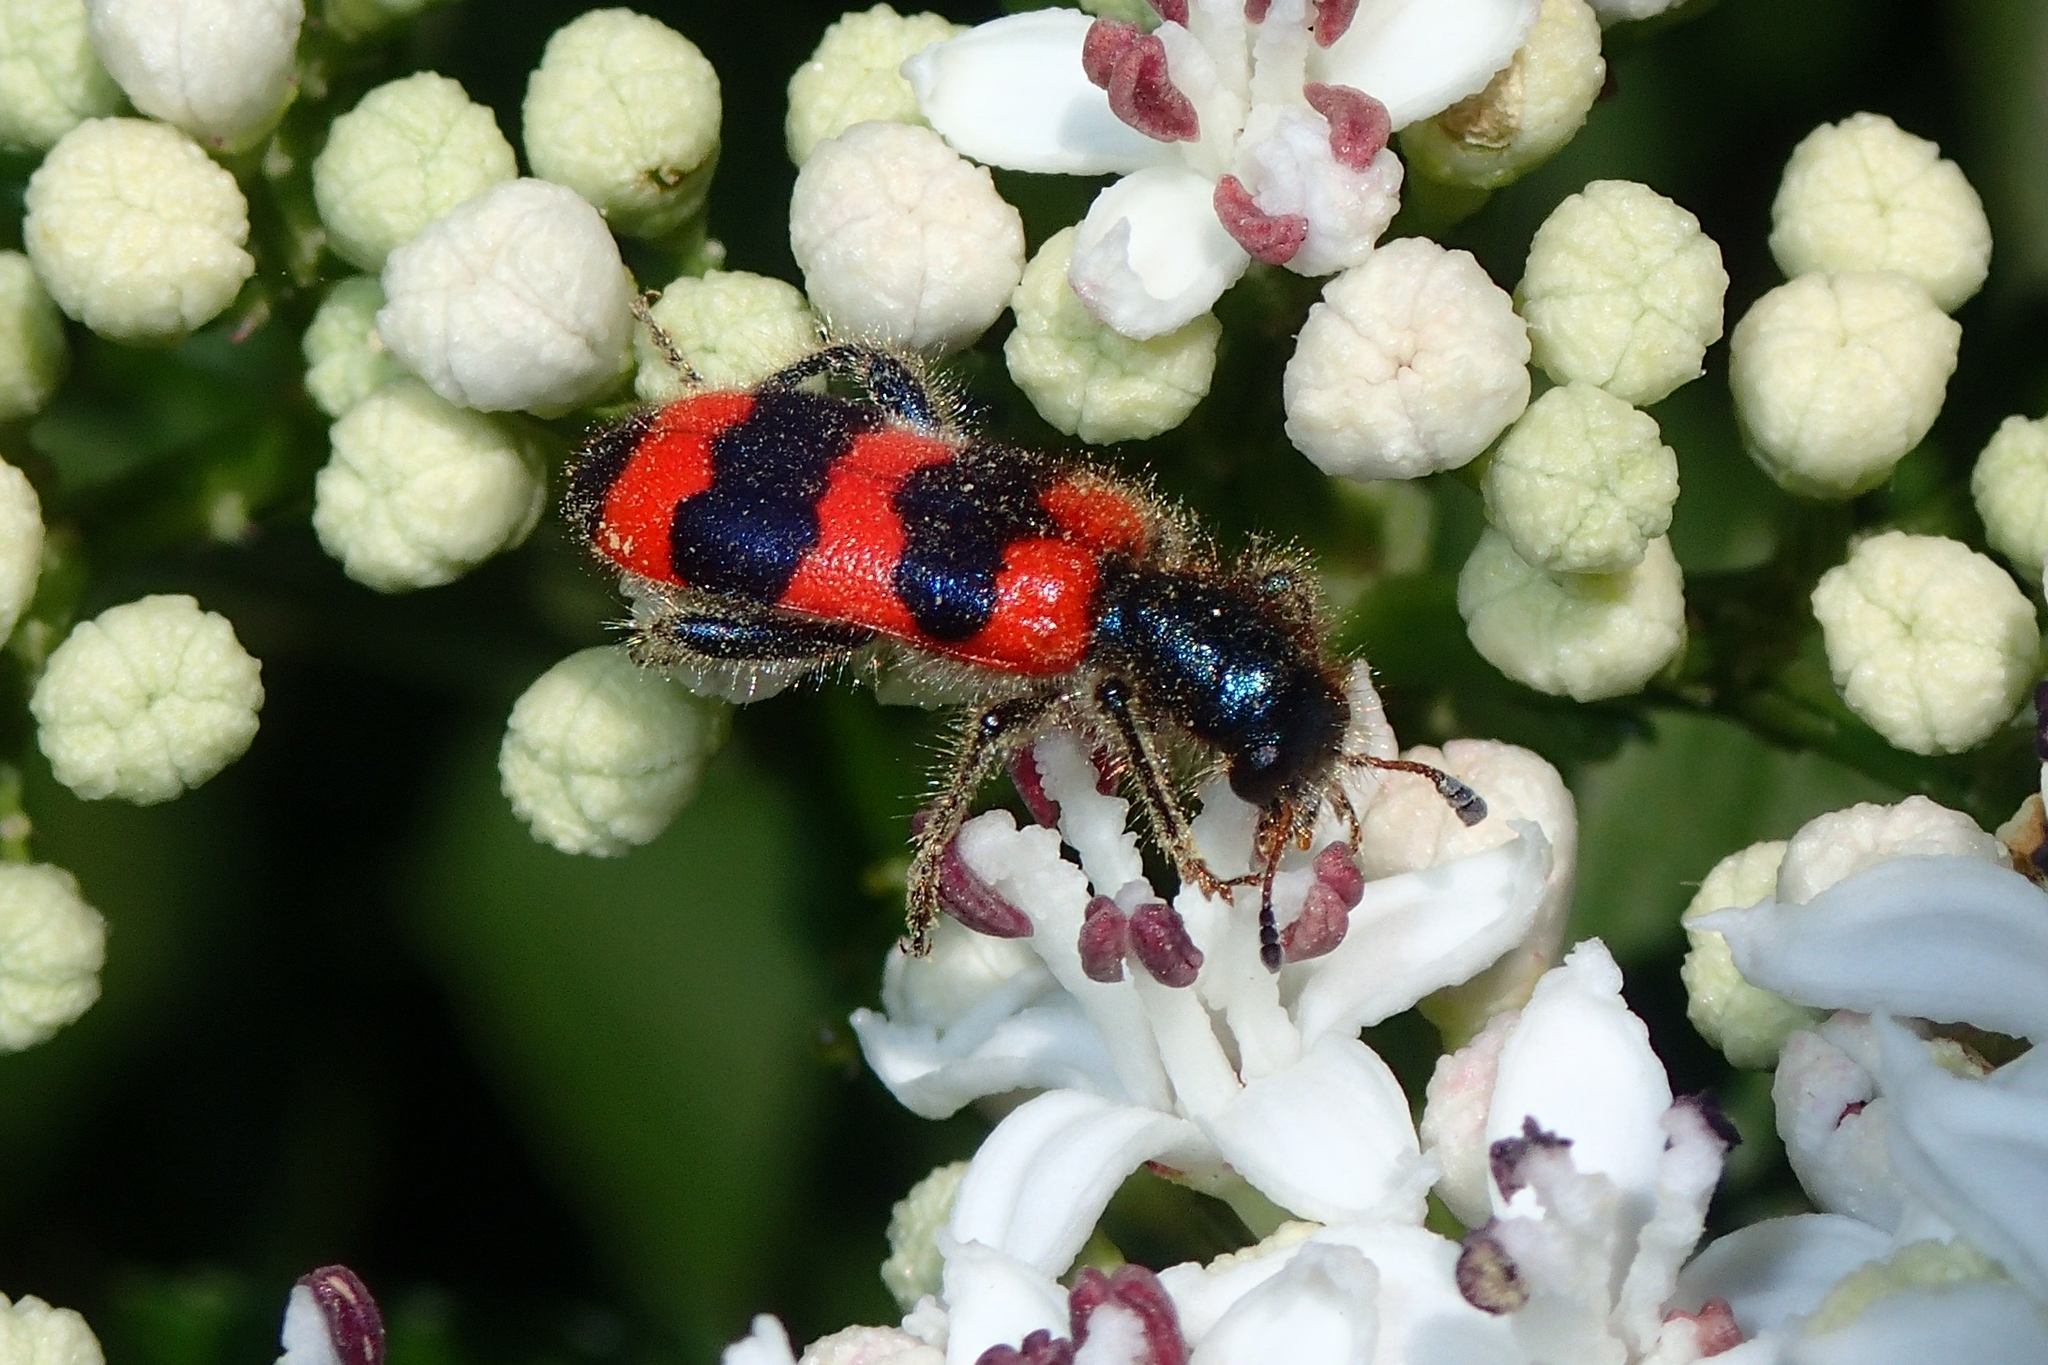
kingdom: Animalia
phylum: Arthropoda
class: Insecta
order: Coleoptera
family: Cleridae
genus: Trichodes
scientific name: Trichodes apiarius
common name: Bee-eating beetle
